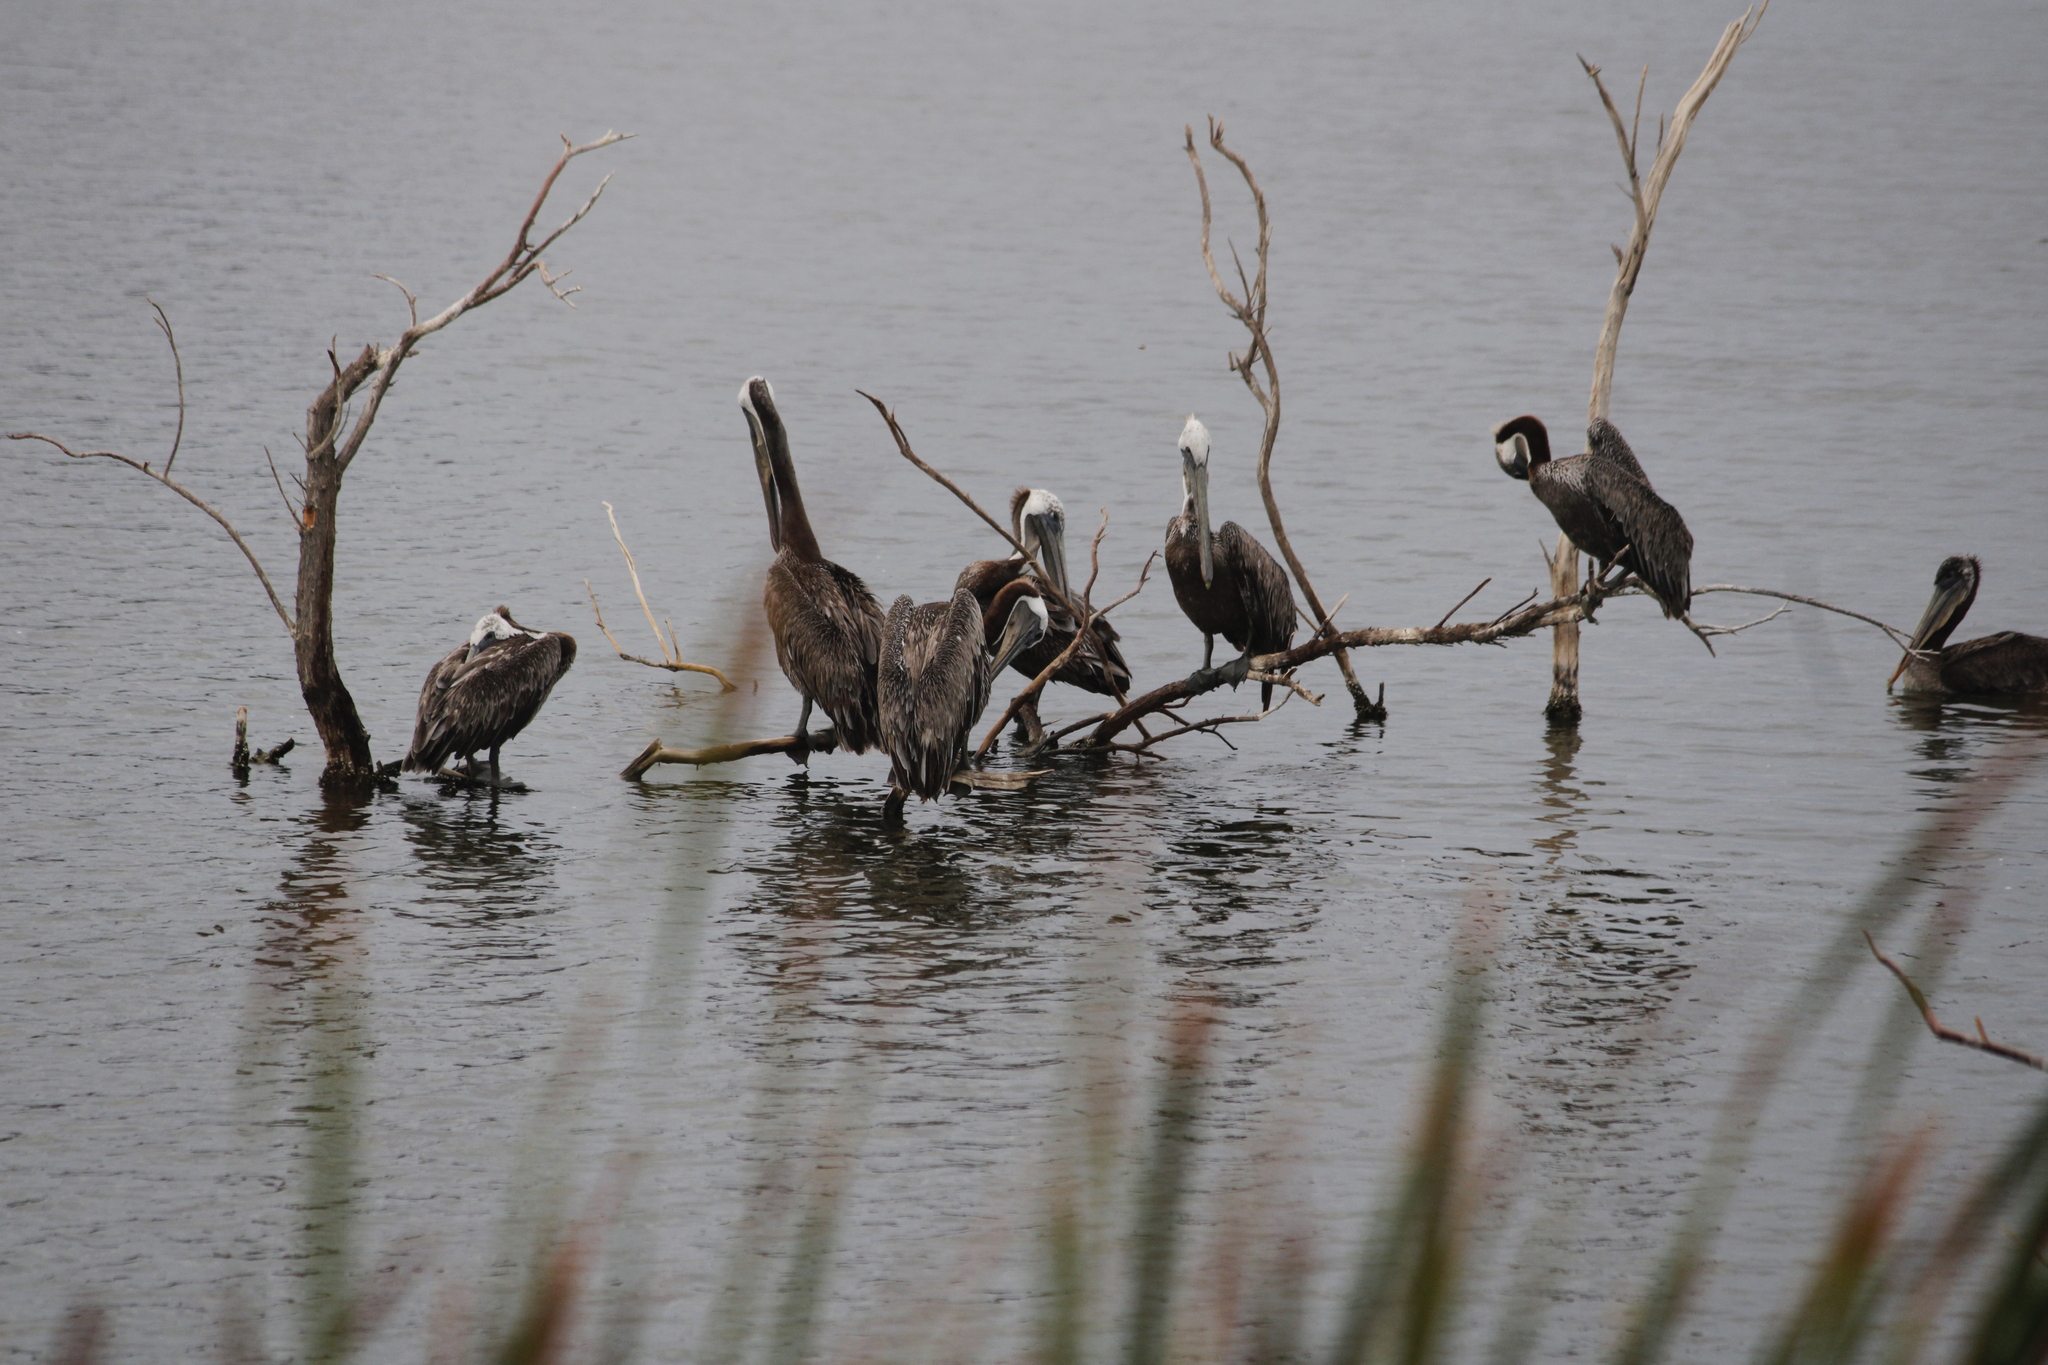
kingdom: Animalia
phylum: Chordata
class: Aves
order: Pelecaniformes
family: Pelecanidae
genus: Pelecanus
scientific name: Pelecanus occidentalis
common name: Brown pelican
